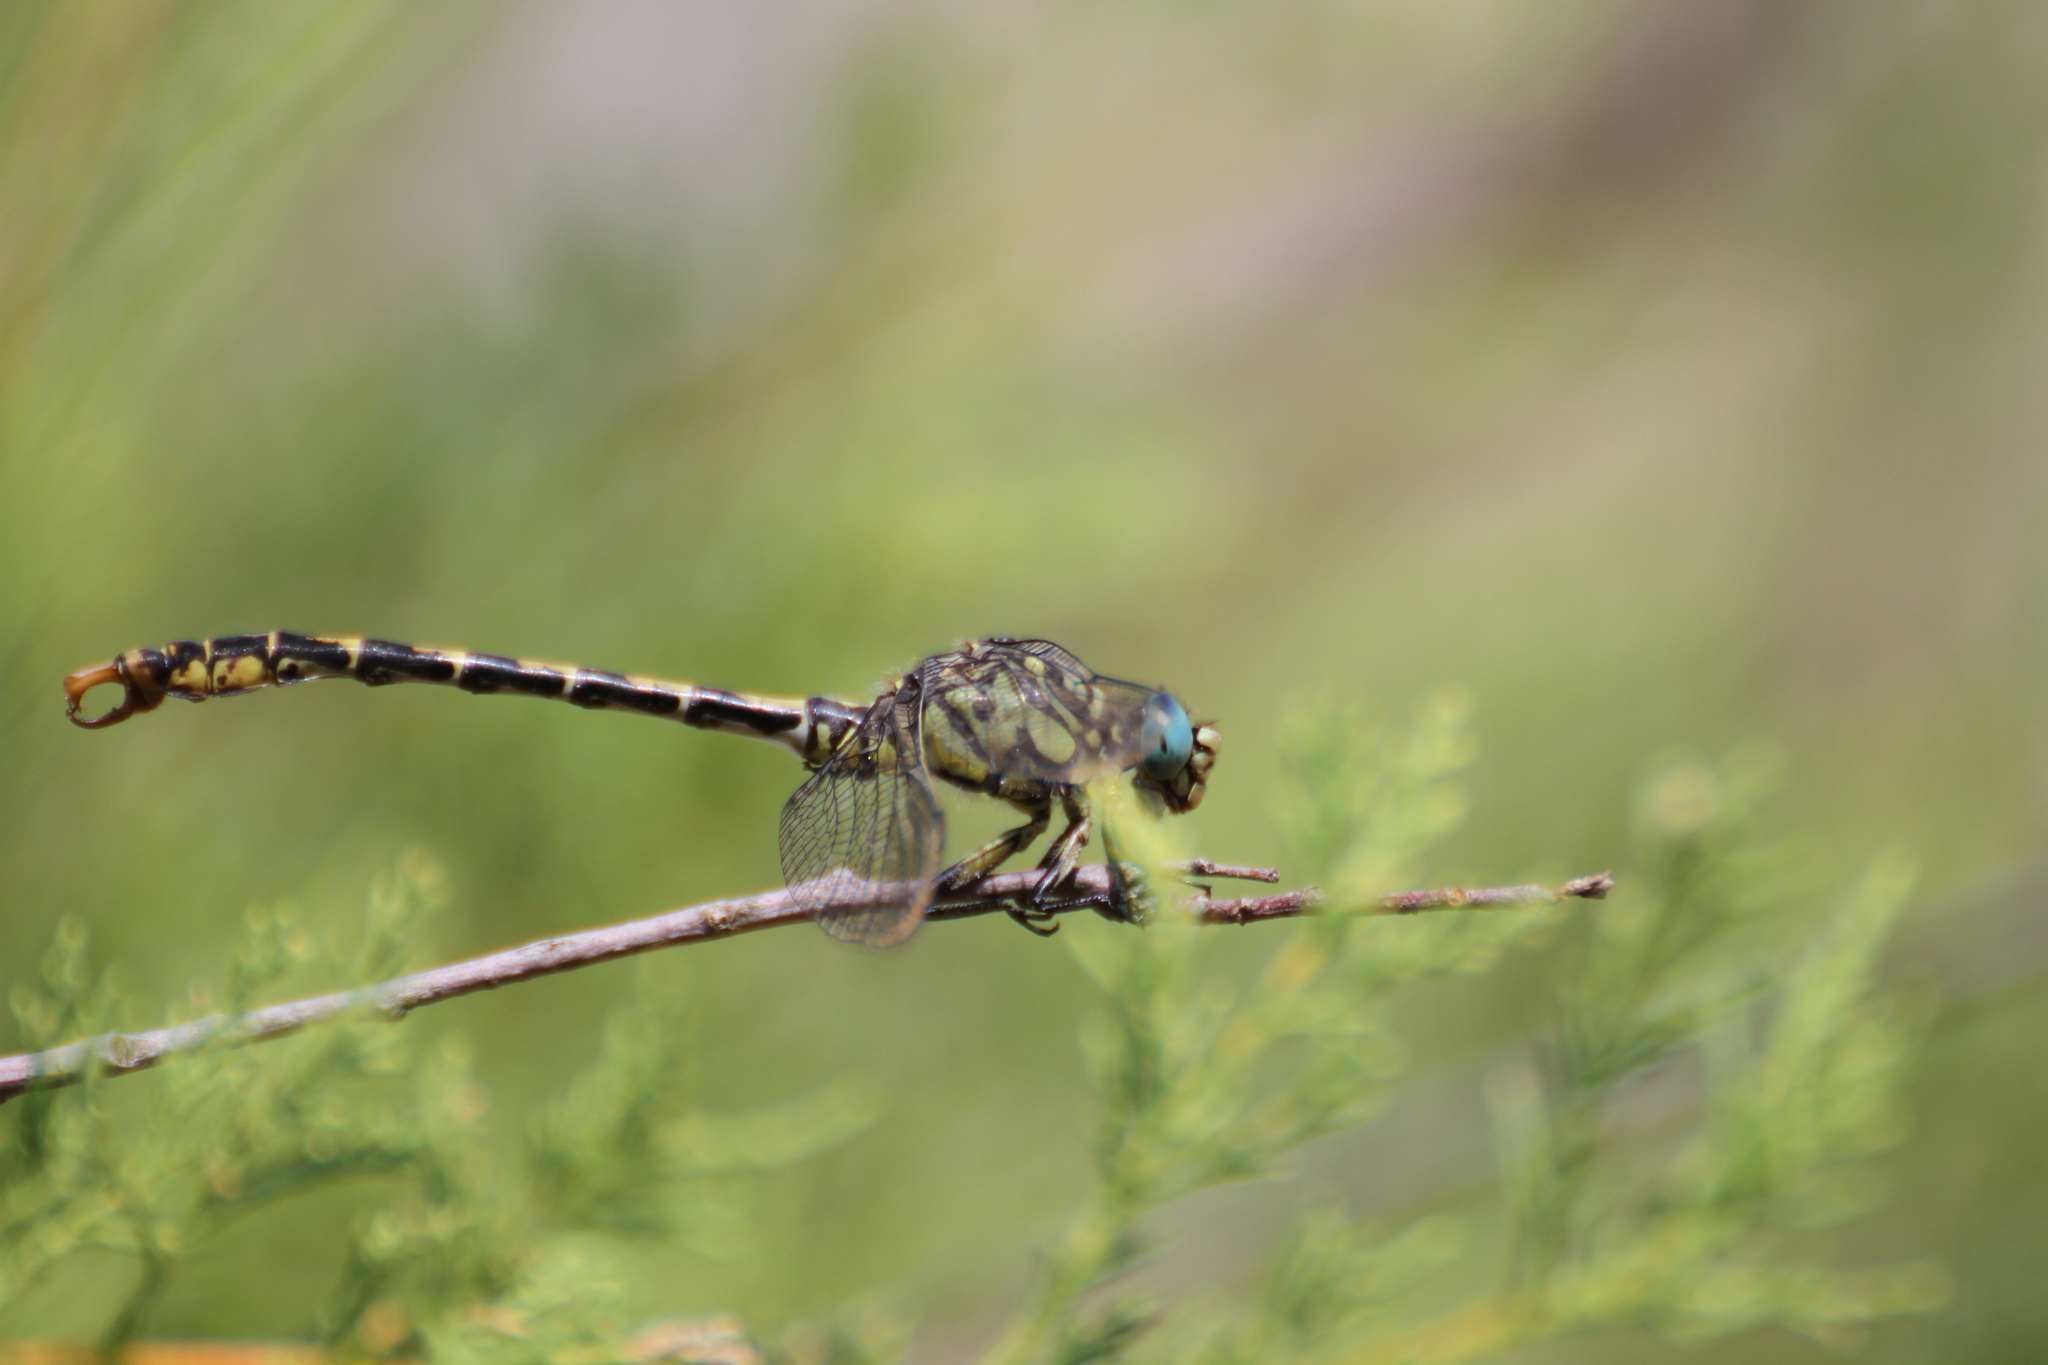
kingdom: Animalia
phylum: Arthropoda
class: Insecta
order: Odonata
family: Gomphidae
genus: Onychogomphus
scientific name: Onychogomphus forcipatus
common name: Small pincertail
